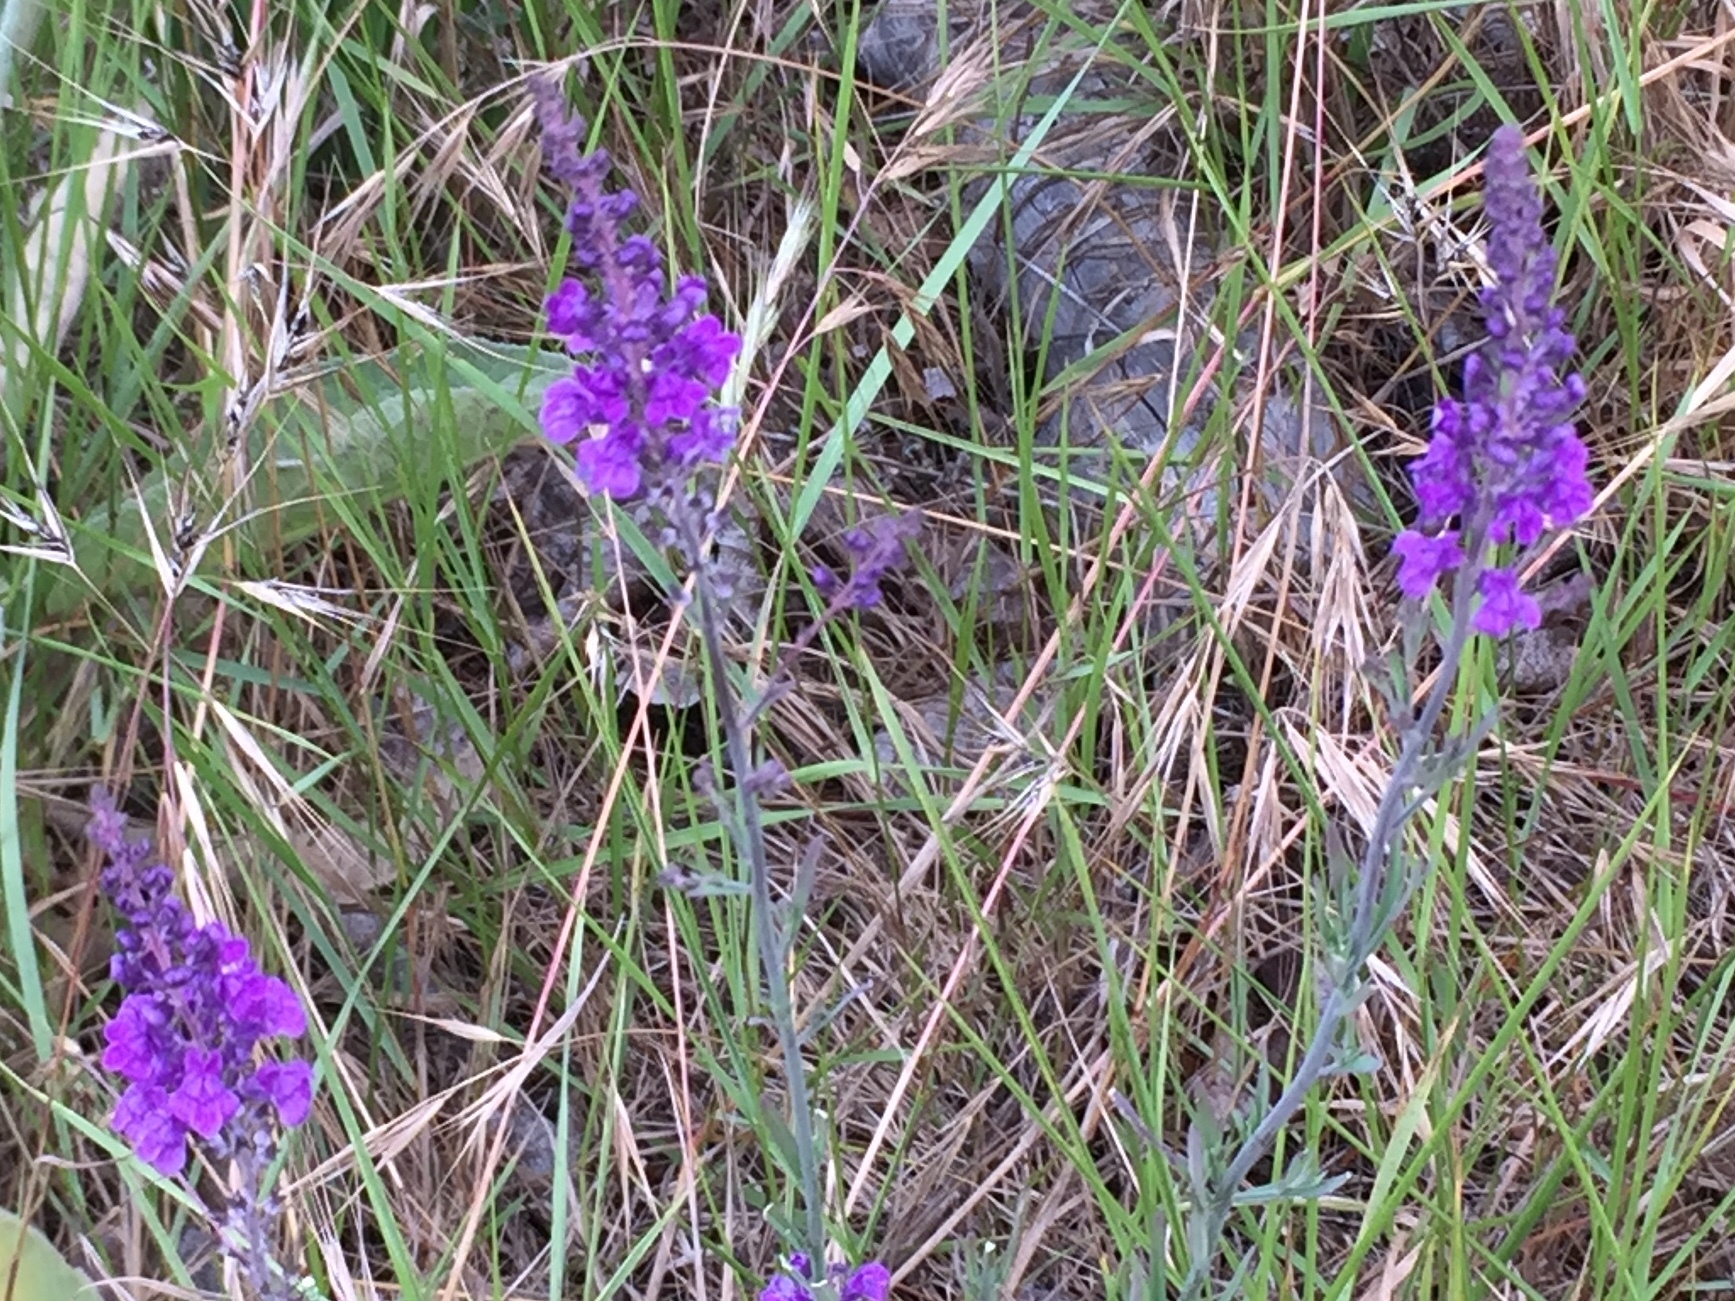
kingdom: Plantae
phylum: Tracheophyta
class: Magnoliopsida
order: Lamiales
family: Plantaginaceae
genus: Linaria
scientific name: Linaria purpurea
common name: Purple toadflax
